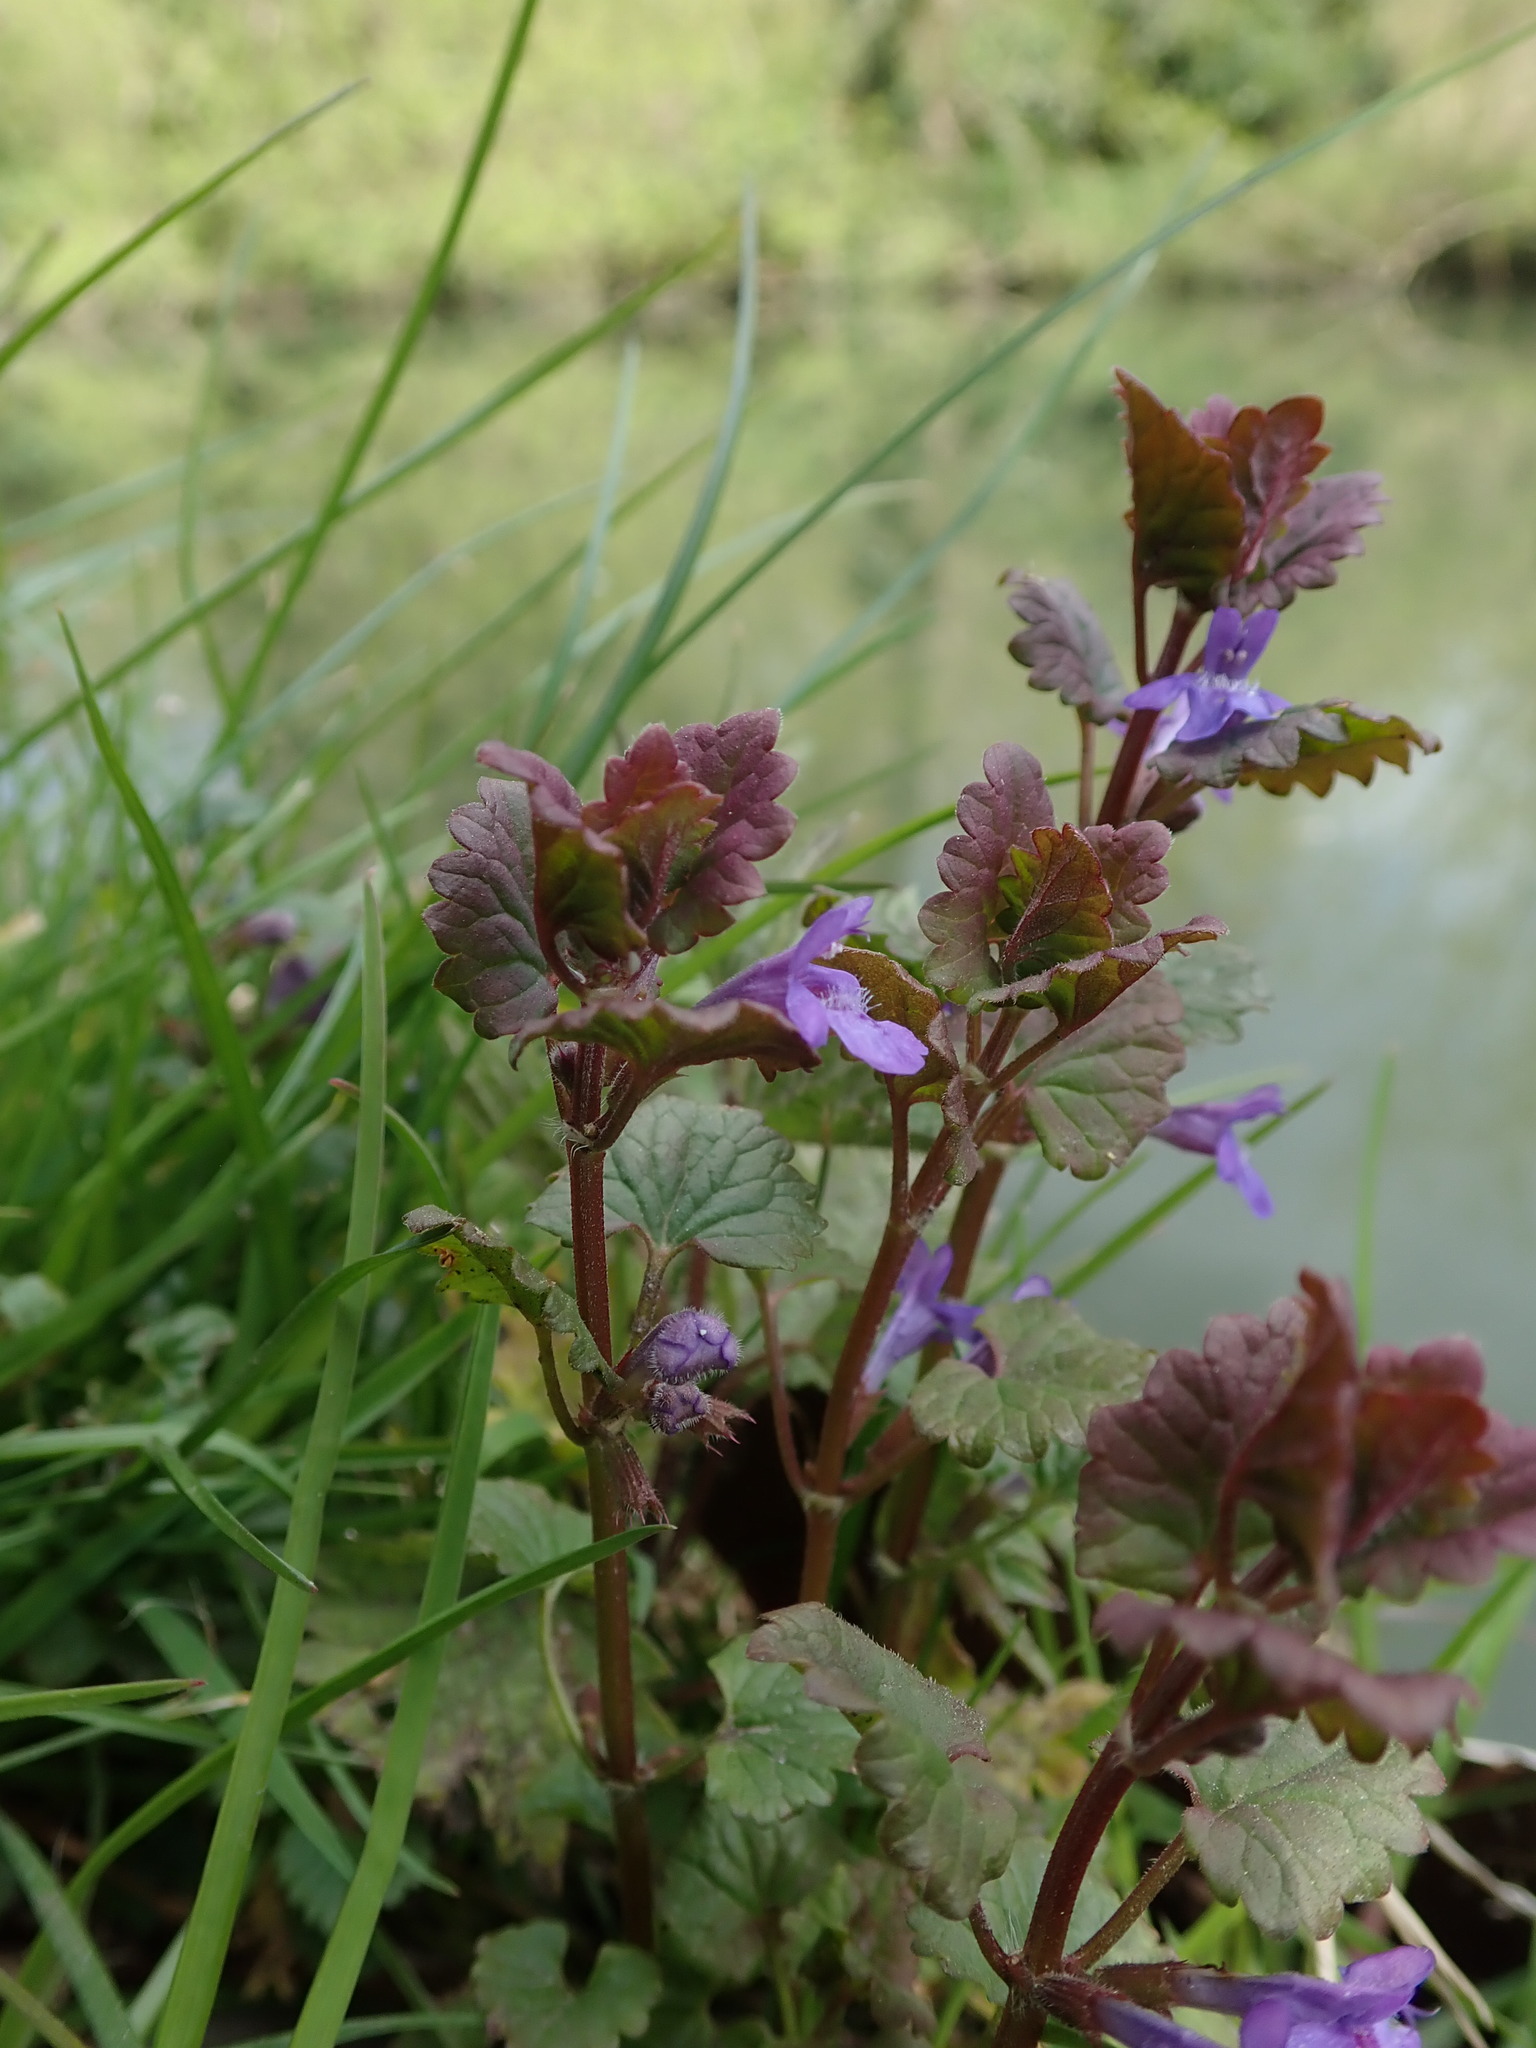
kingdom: Plantae
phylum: Tracheophyta
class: Magnoliopsida
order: Lamiales
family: Lamiaceae
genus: Glechoma
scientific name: Glechoma hederacea
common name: Ground ivy
